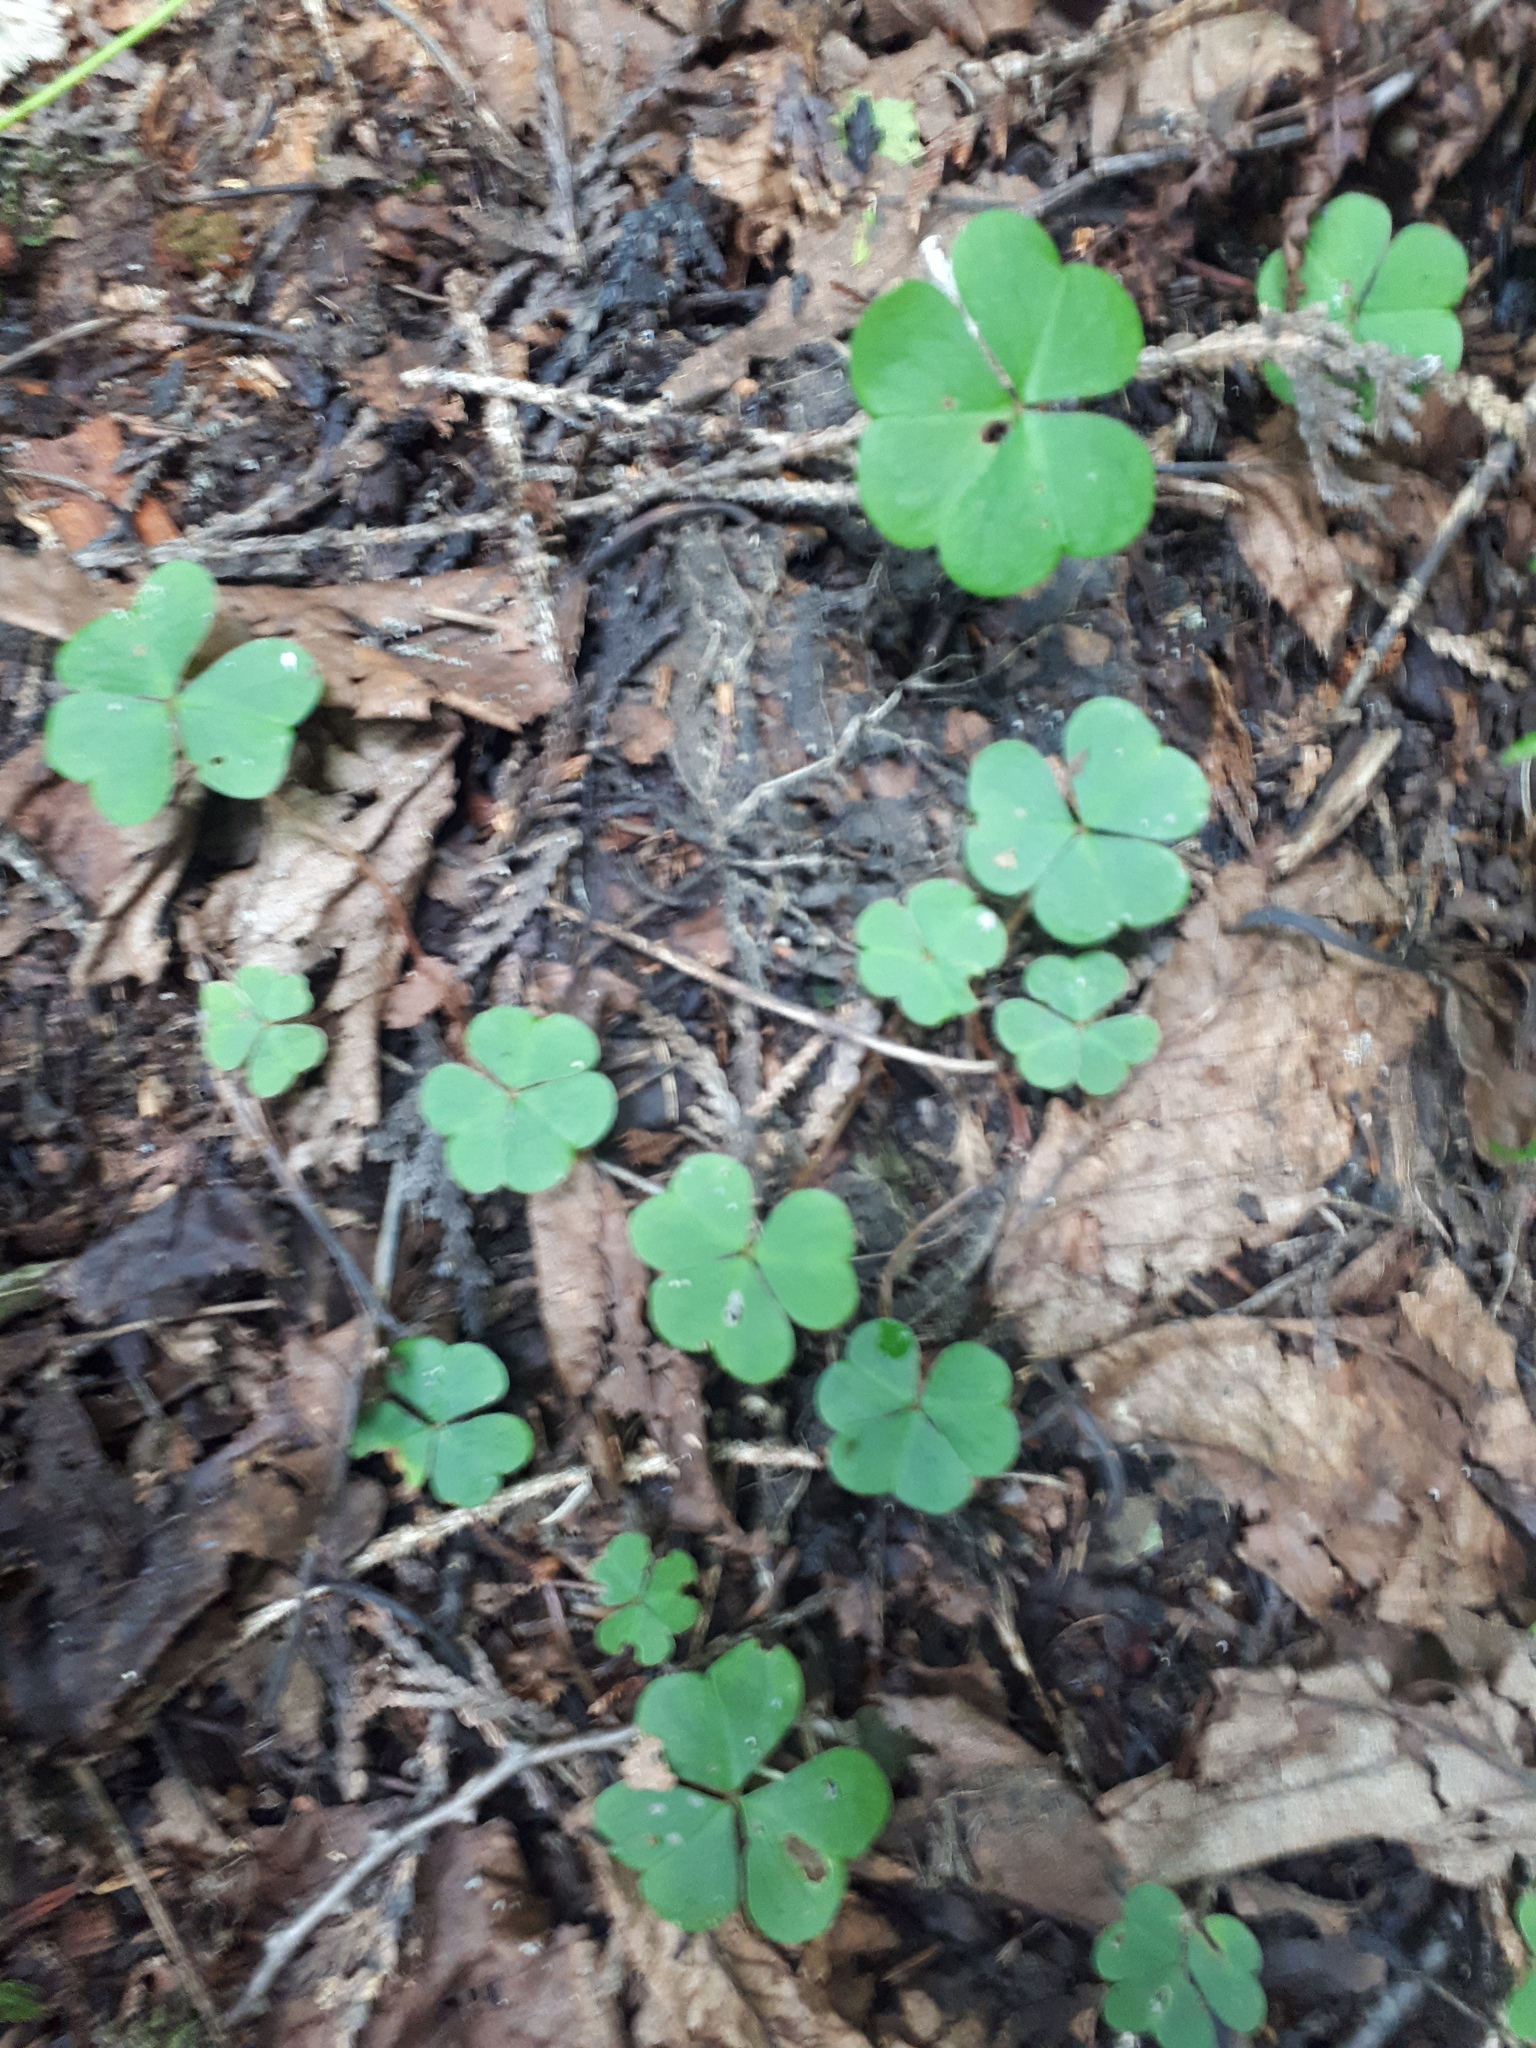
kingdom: Plantae
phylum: Tracheophyta
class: Magnoliopsida
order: Oxalidales
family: Oxalidaceae
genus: Oxalis
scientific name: Oxalis montana
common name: American wood-sorrel
